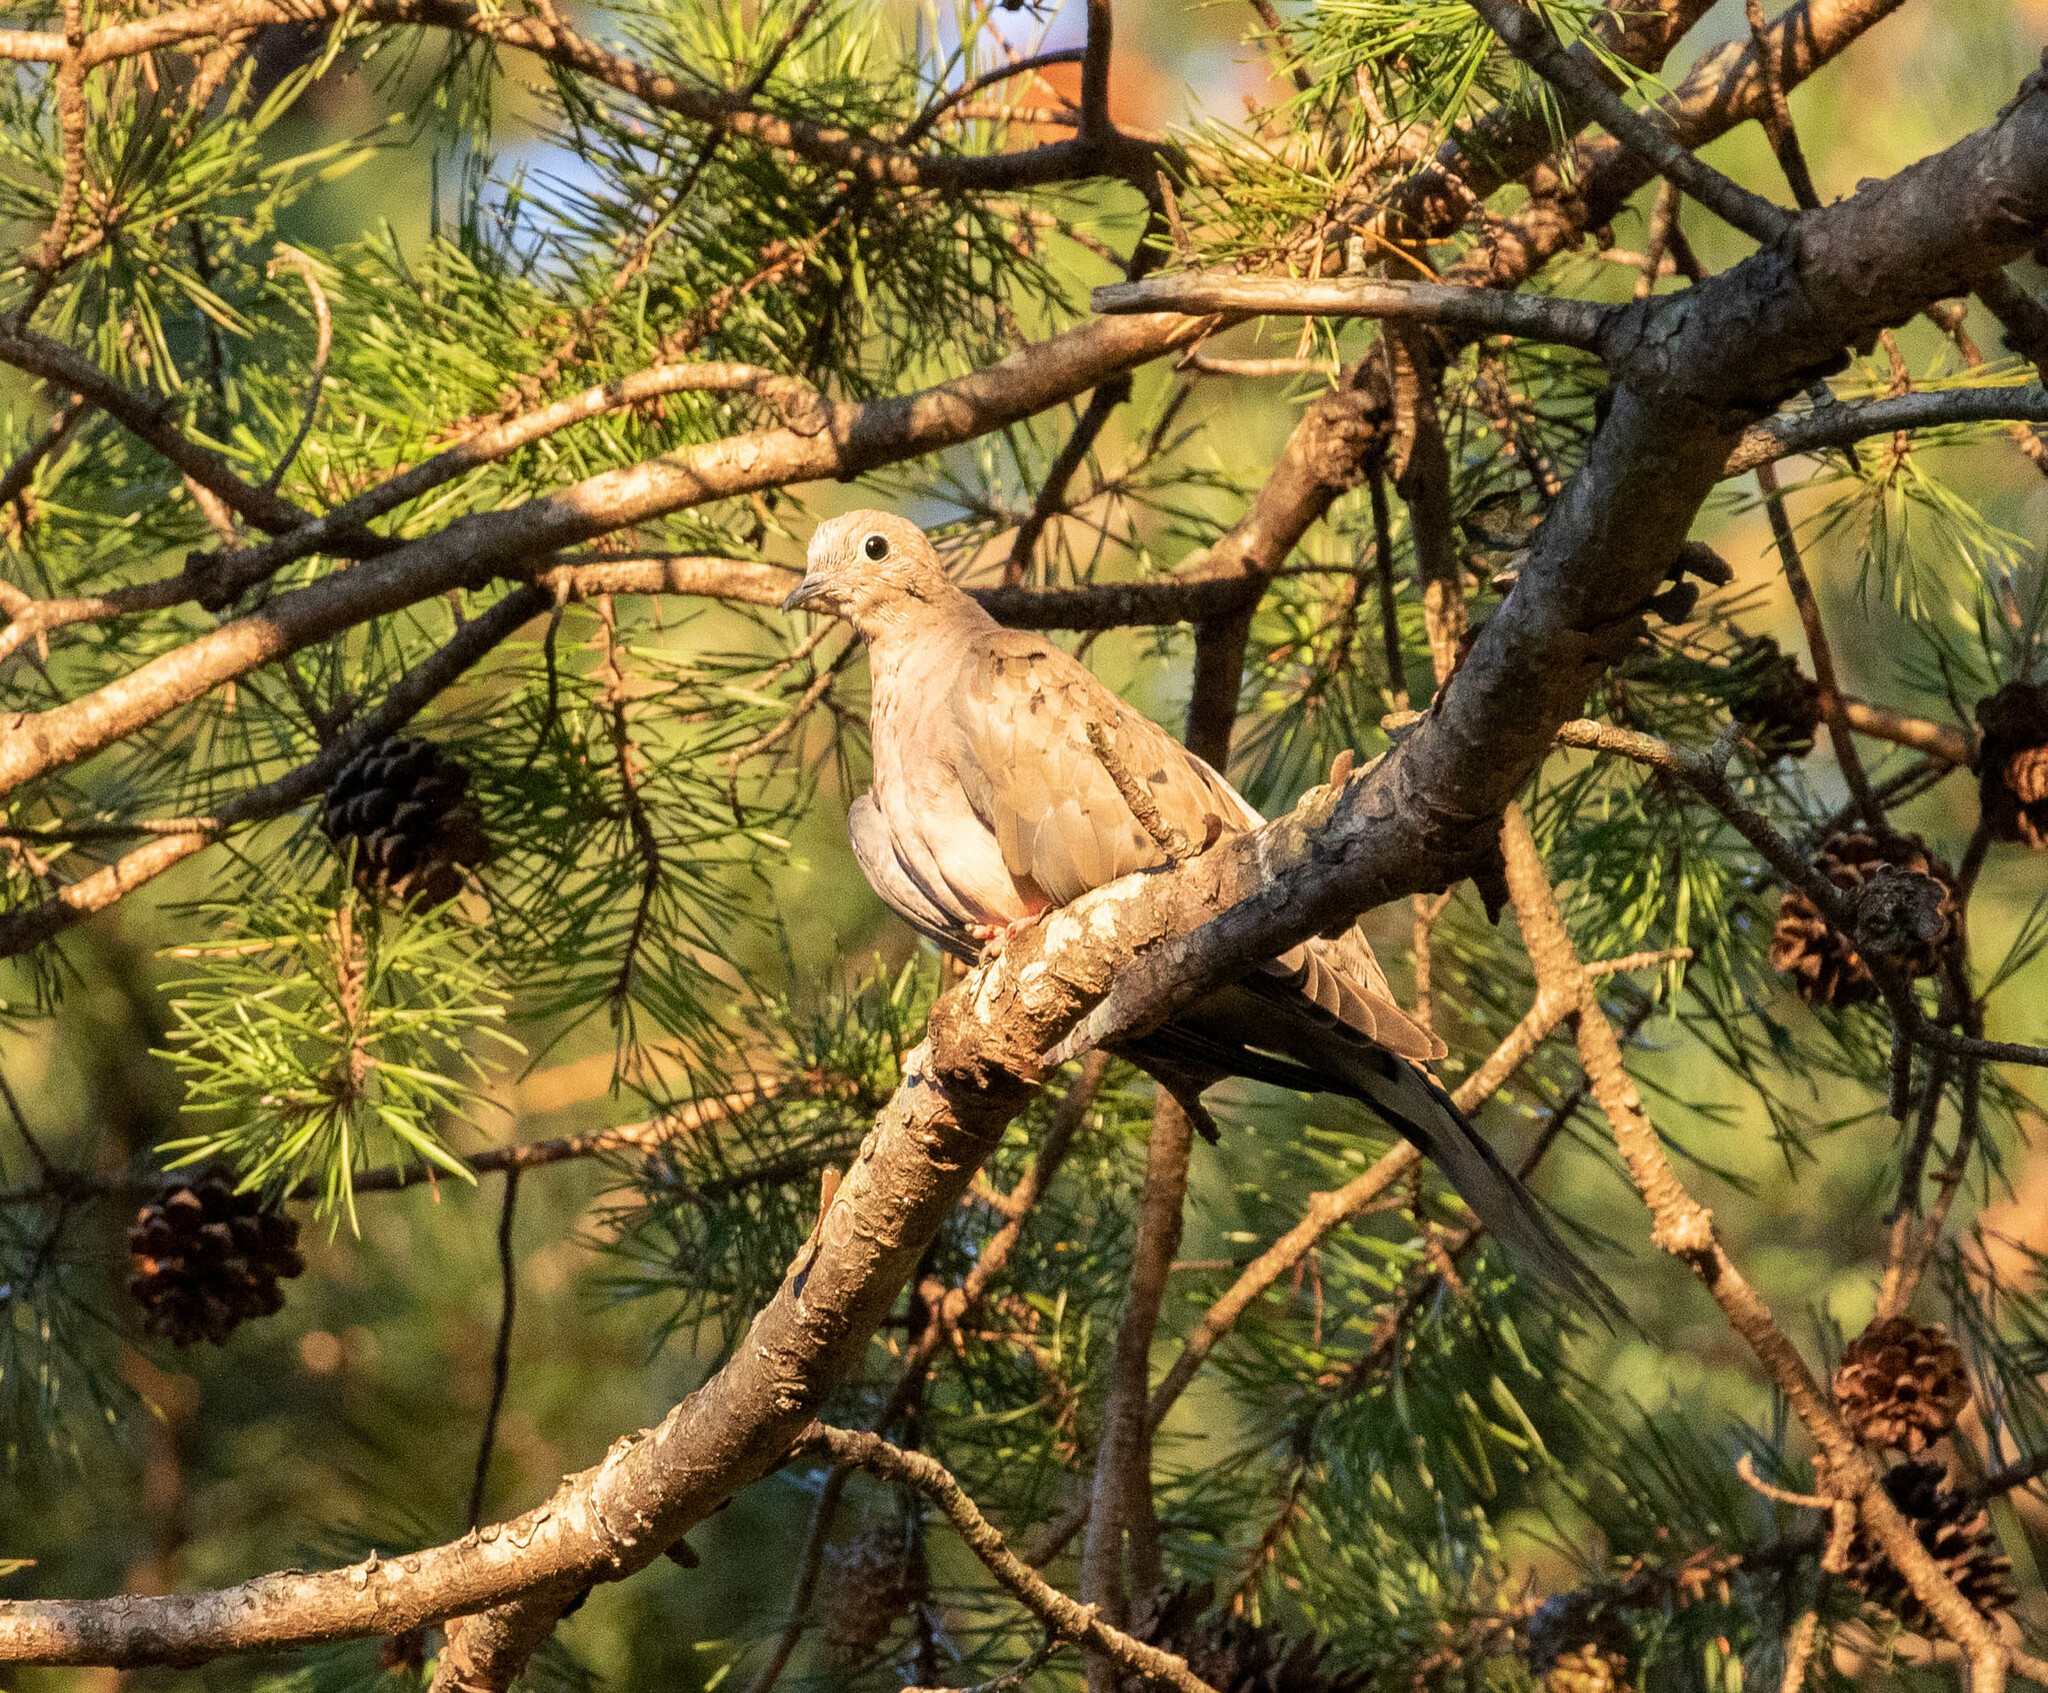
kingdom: Animalia
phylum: Chordata
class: Aves
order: Columbiformes
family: Columbidae
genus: Zenaida
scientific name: Zenaida macroura
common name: Mourning dove
